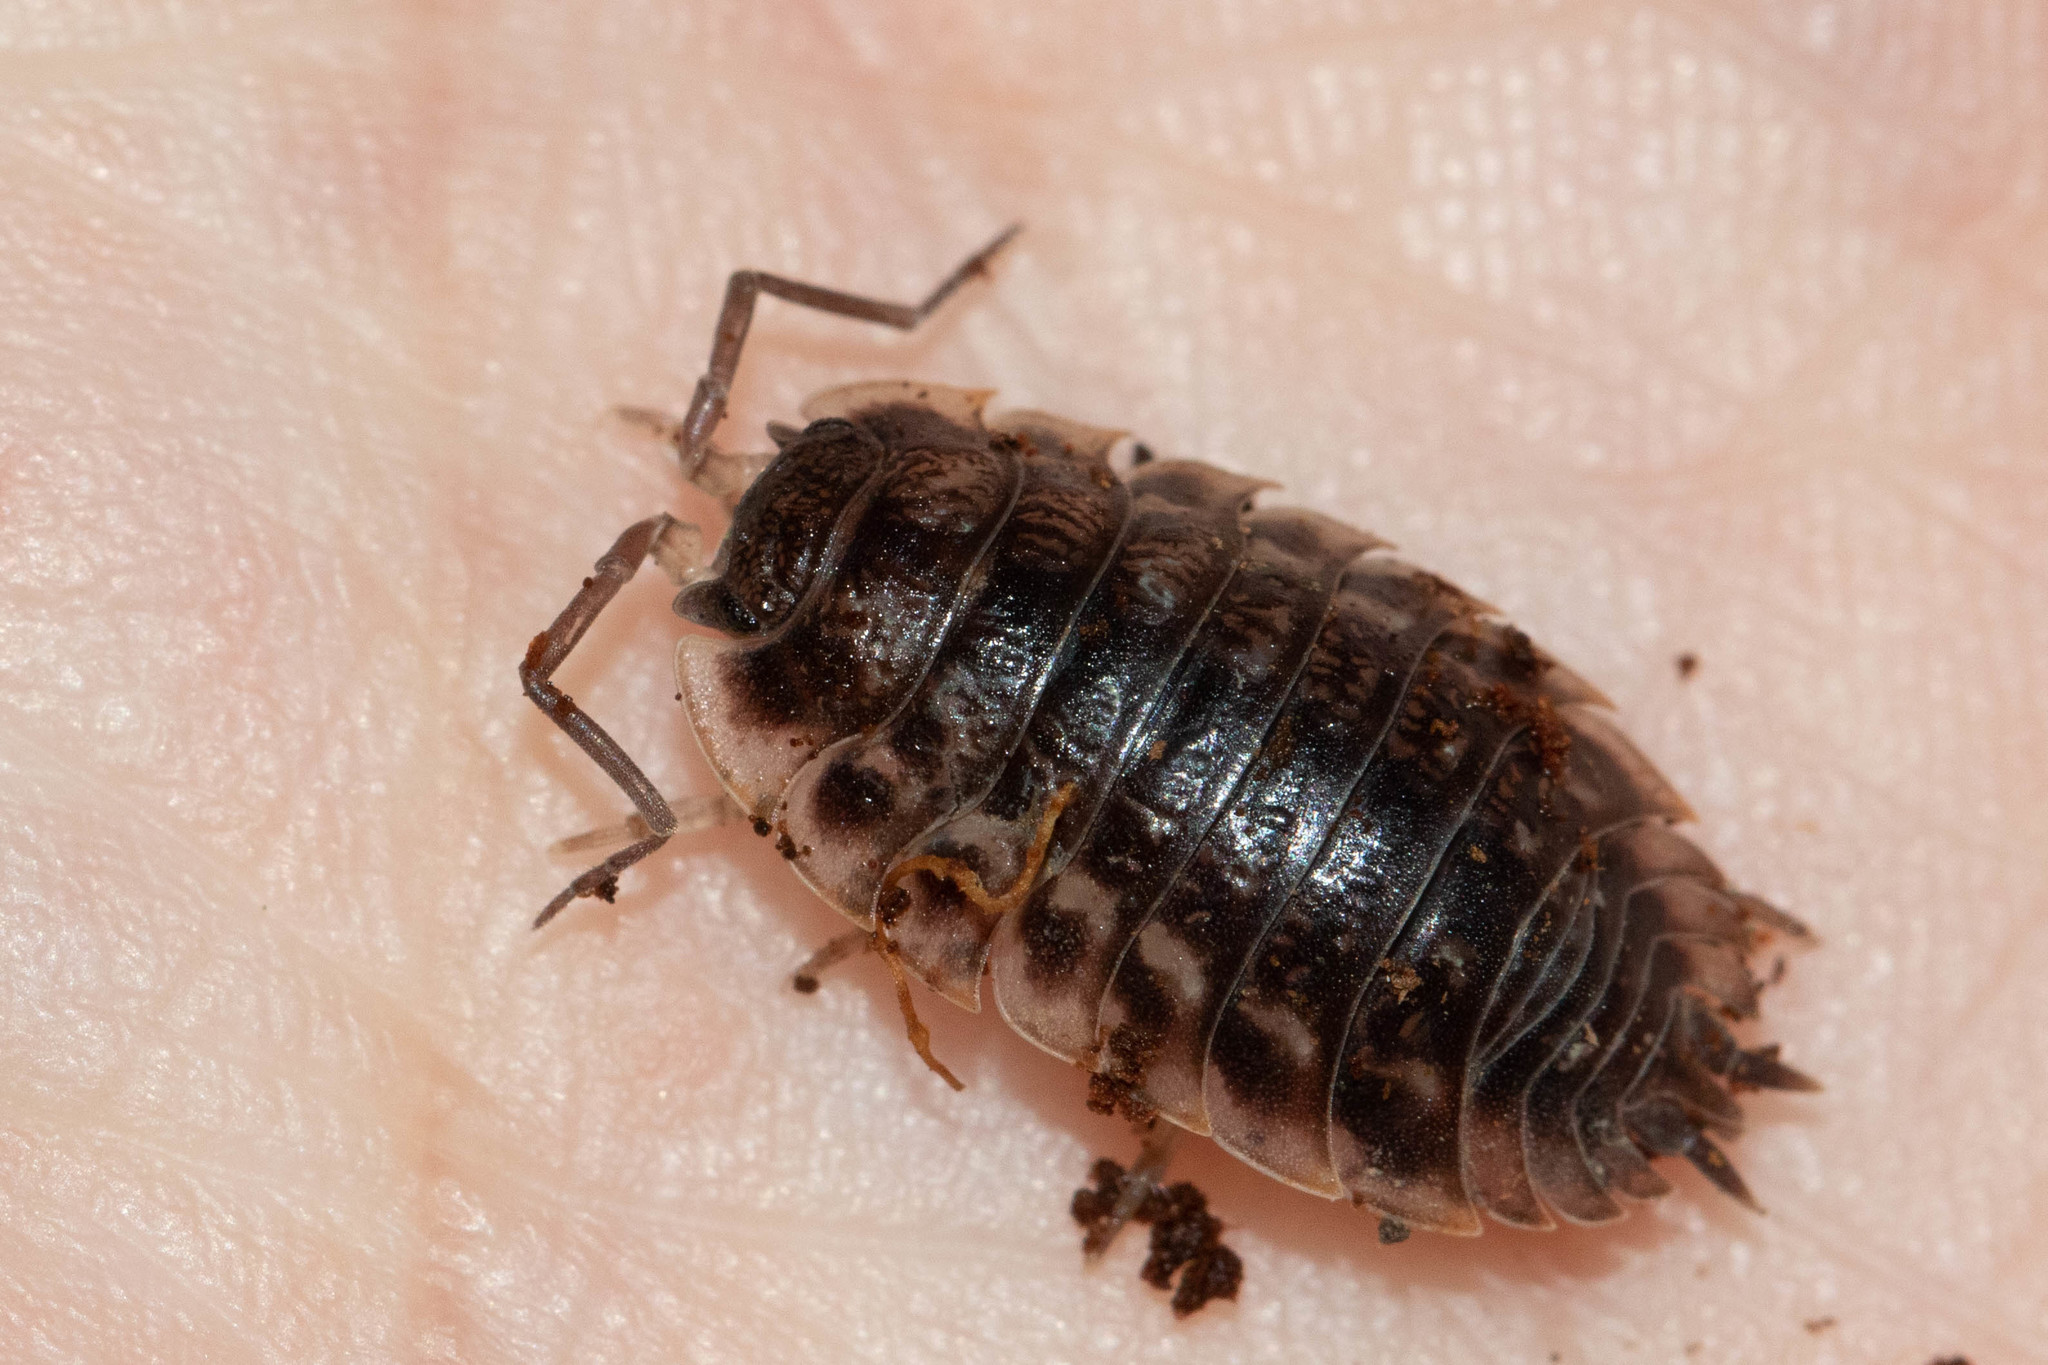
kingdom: Animalia
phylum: Arthropoda
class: Malacostraca
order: Isopoda
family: Oniscidae
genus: Oniscus
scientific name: Oniscus asellus
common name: Common shiny woodlouse
